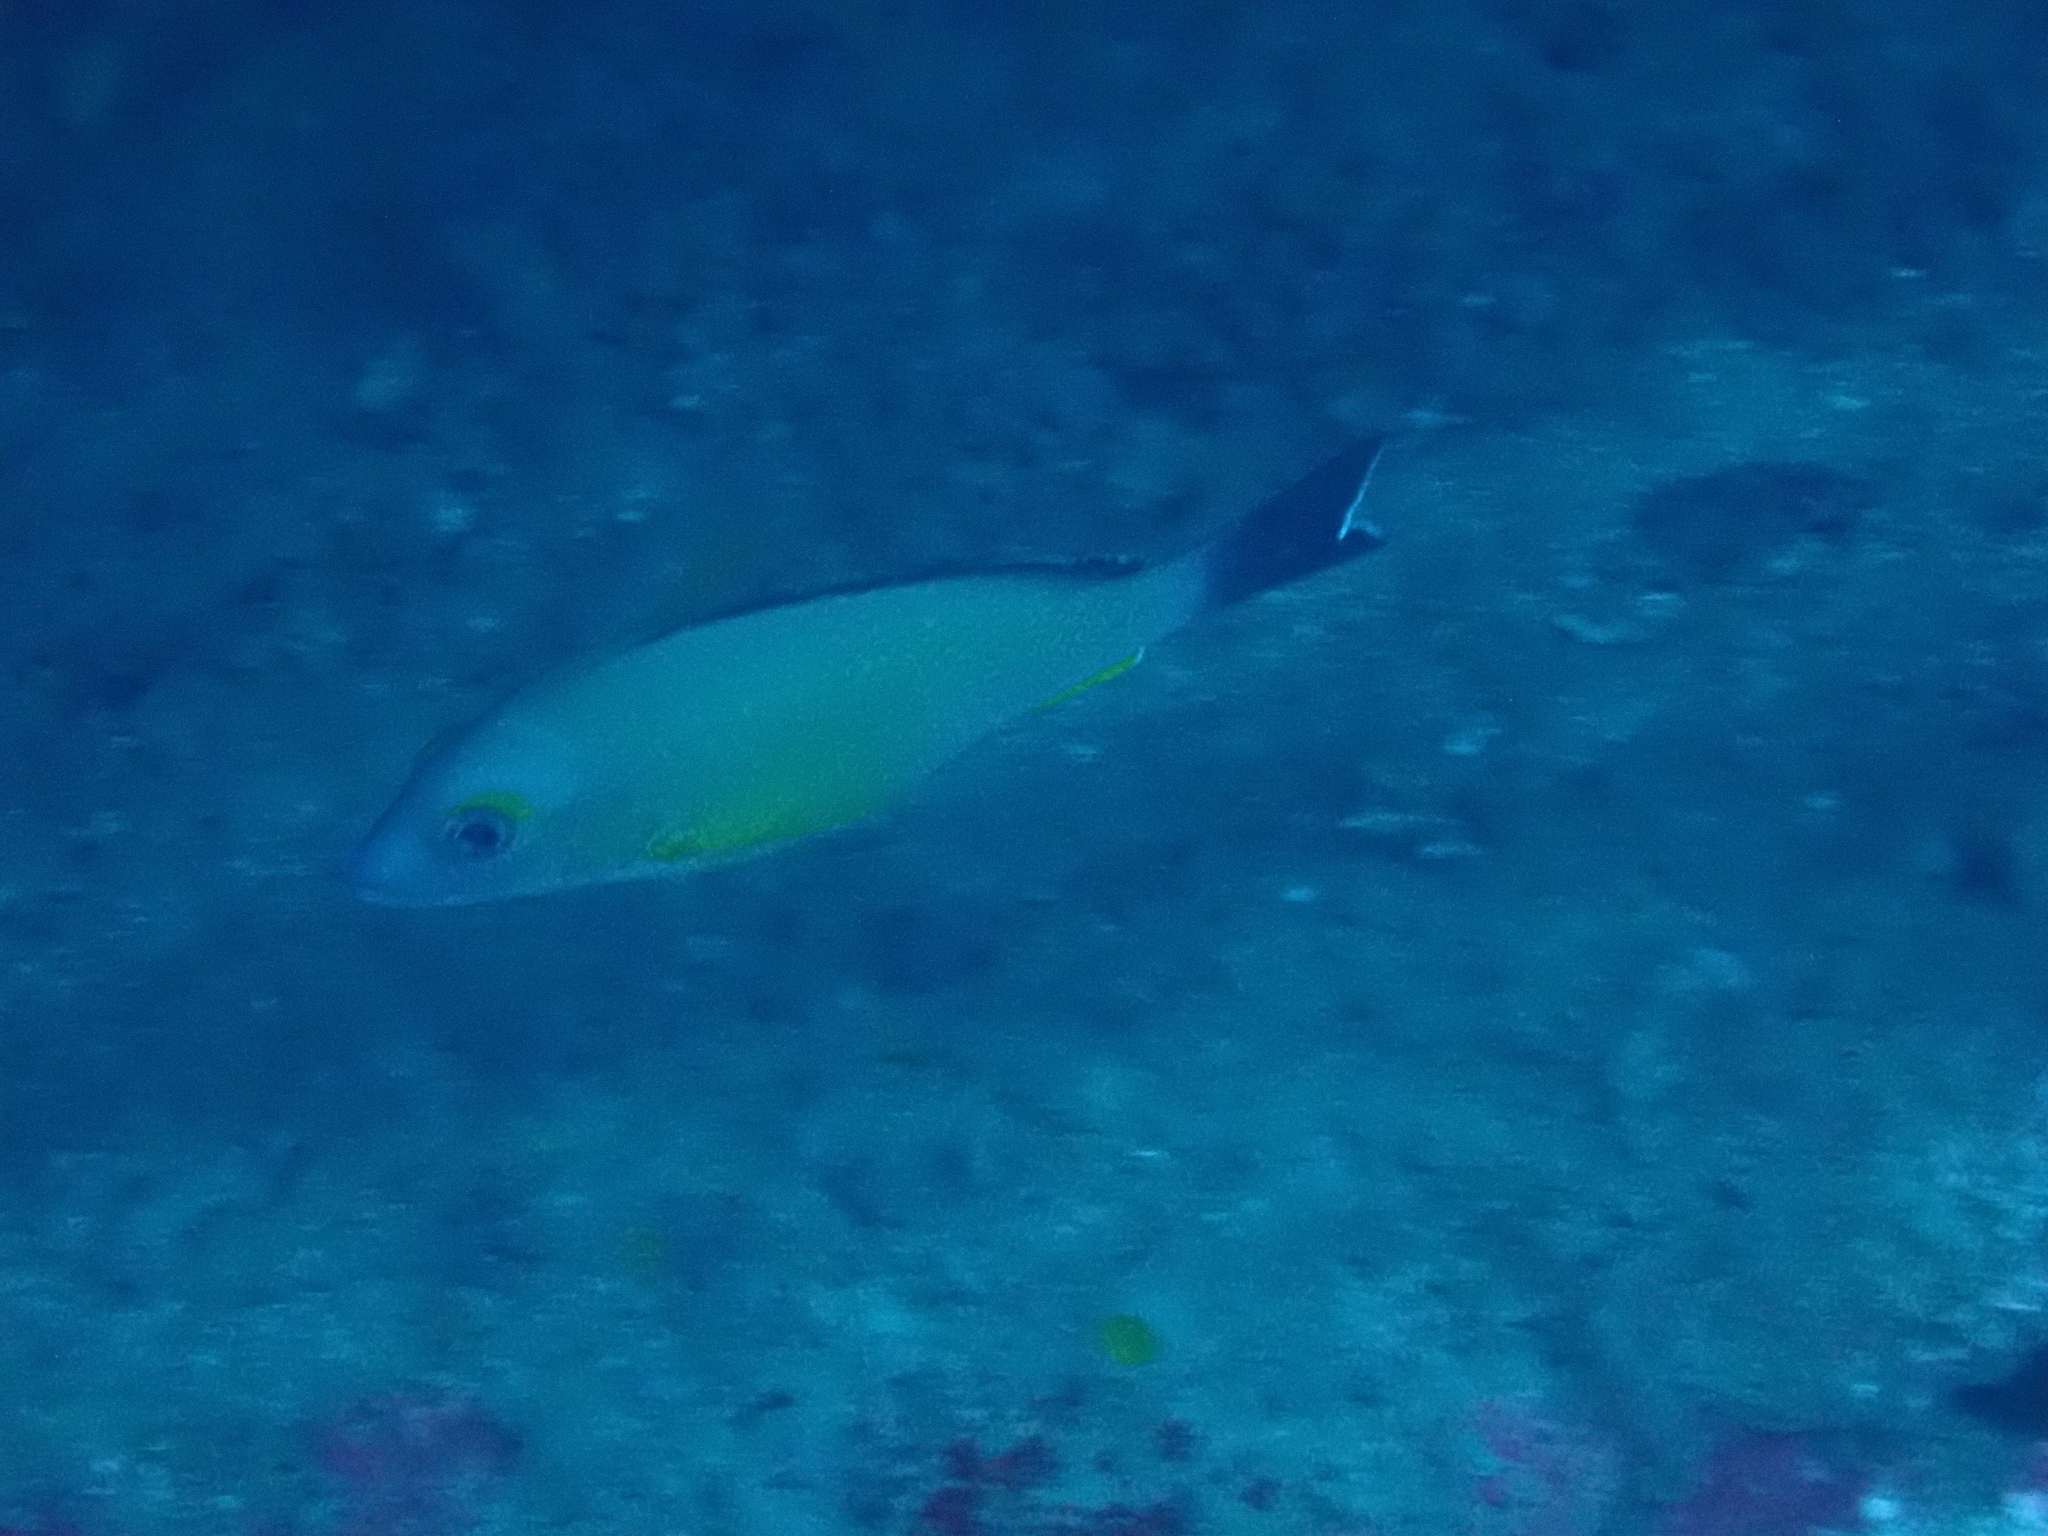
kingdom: Animalia
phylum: Chordata
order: Perciformes
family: Lutjanidae
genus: Lutjanus
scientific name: Lutjanus fulvus
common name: Blacktail snapper
